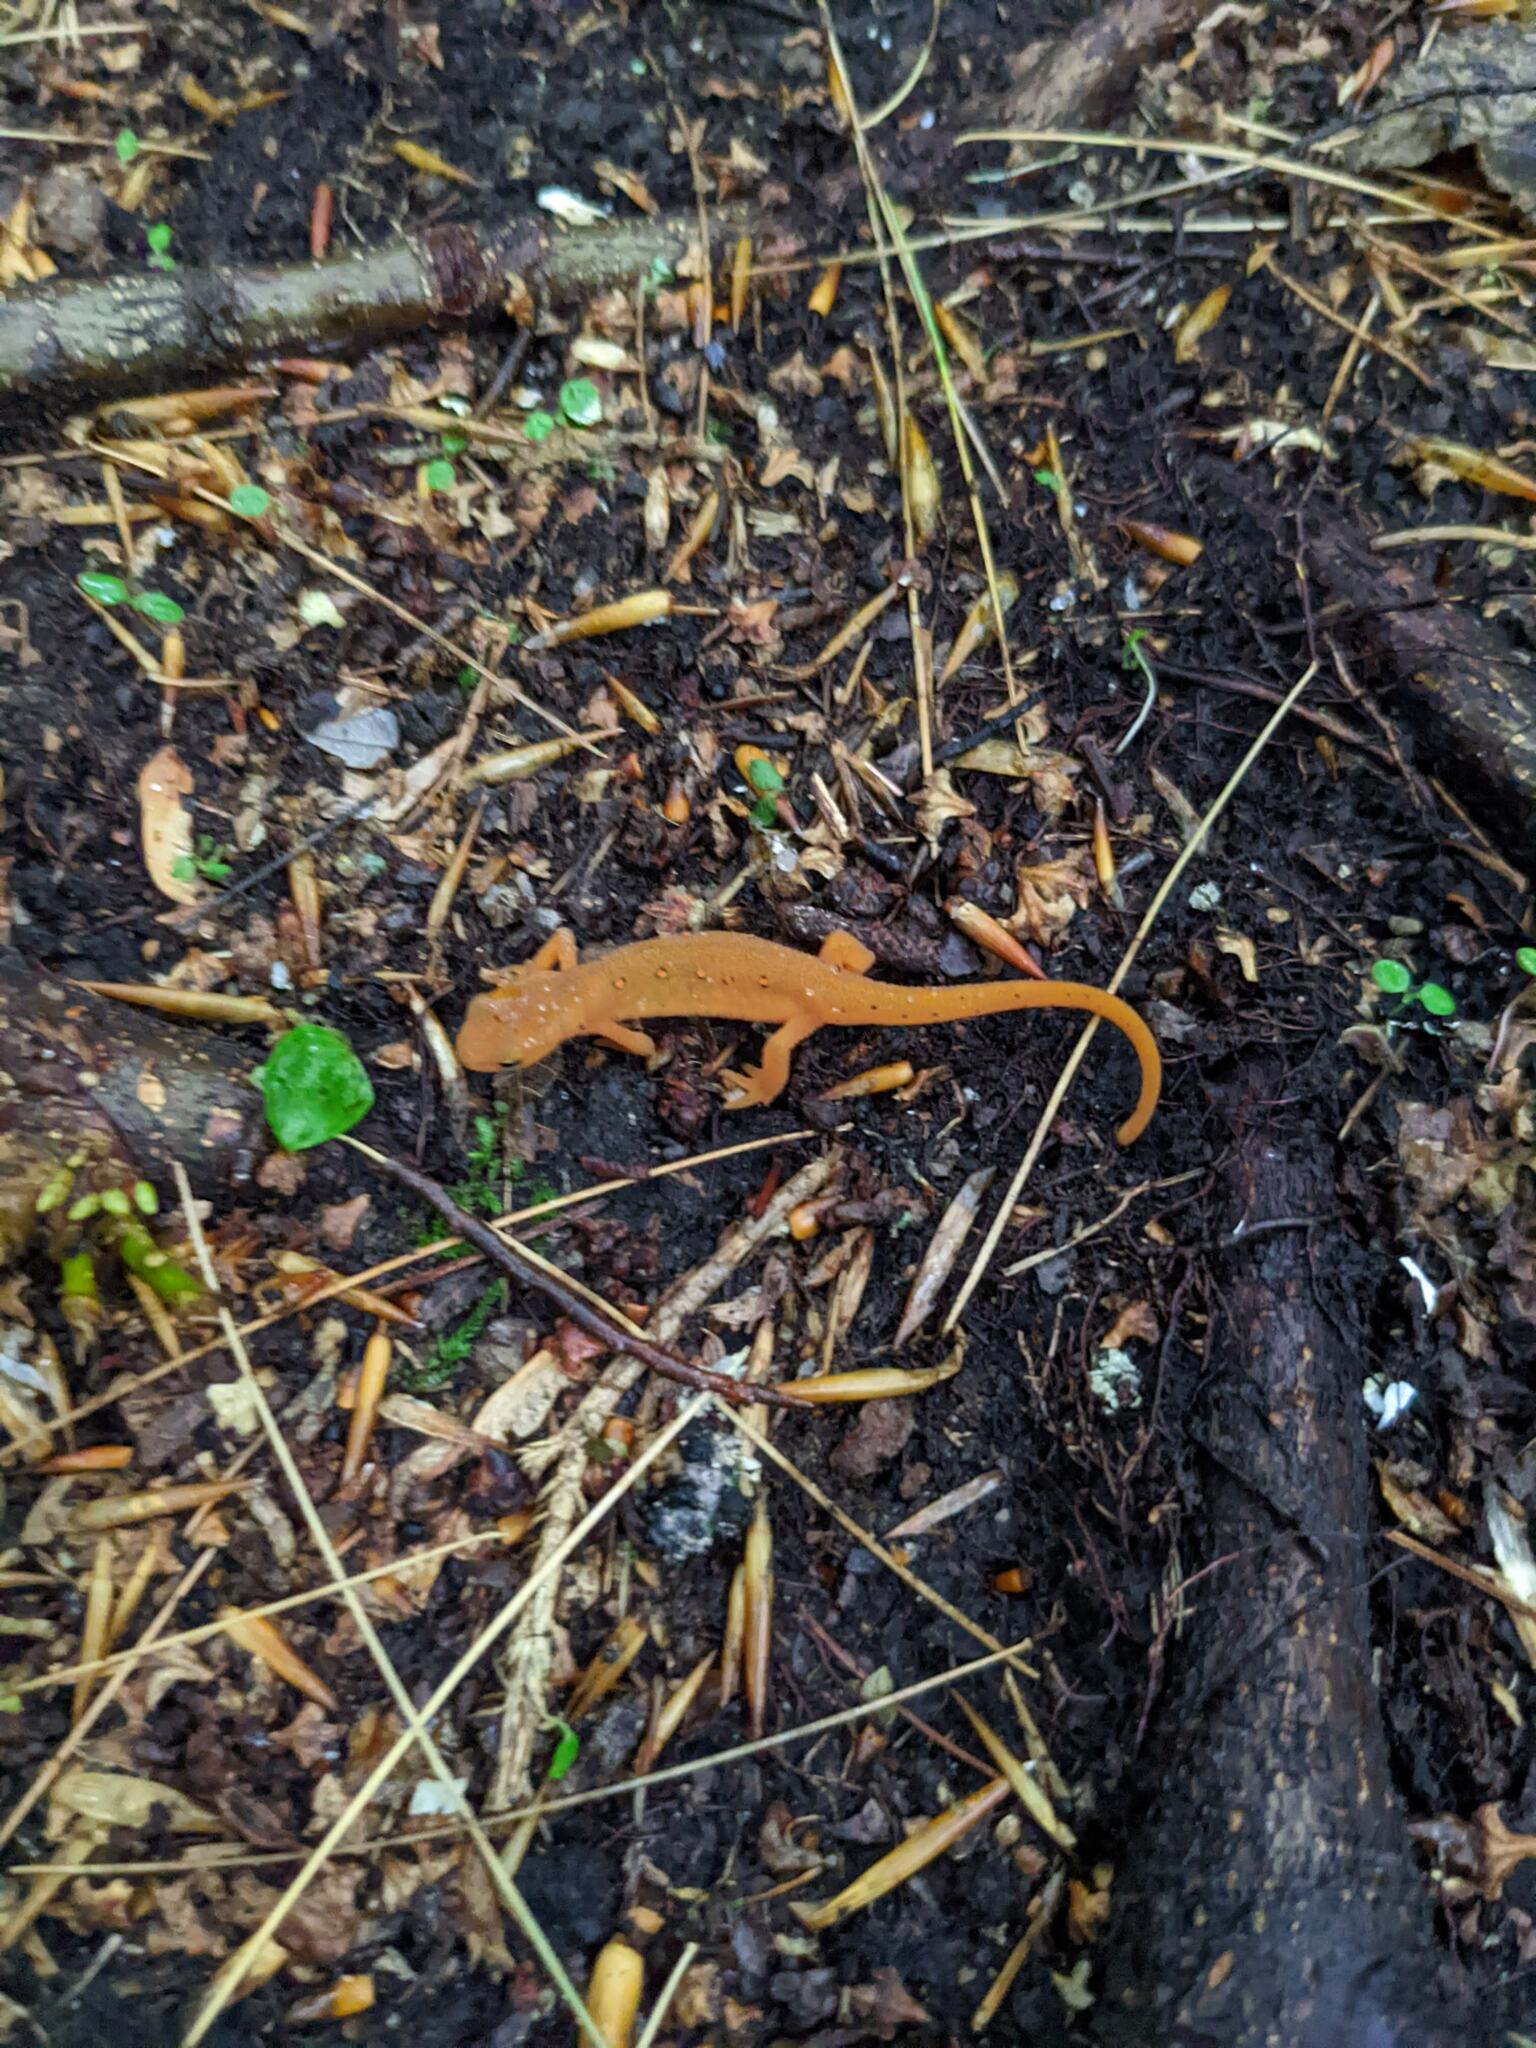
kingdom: Animalia
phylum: Chordata
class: Amphibia
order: Caudata
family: Salamandridae
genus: Notophthalmus
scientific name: Notophthalmus viridescens
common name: Eastern newt
